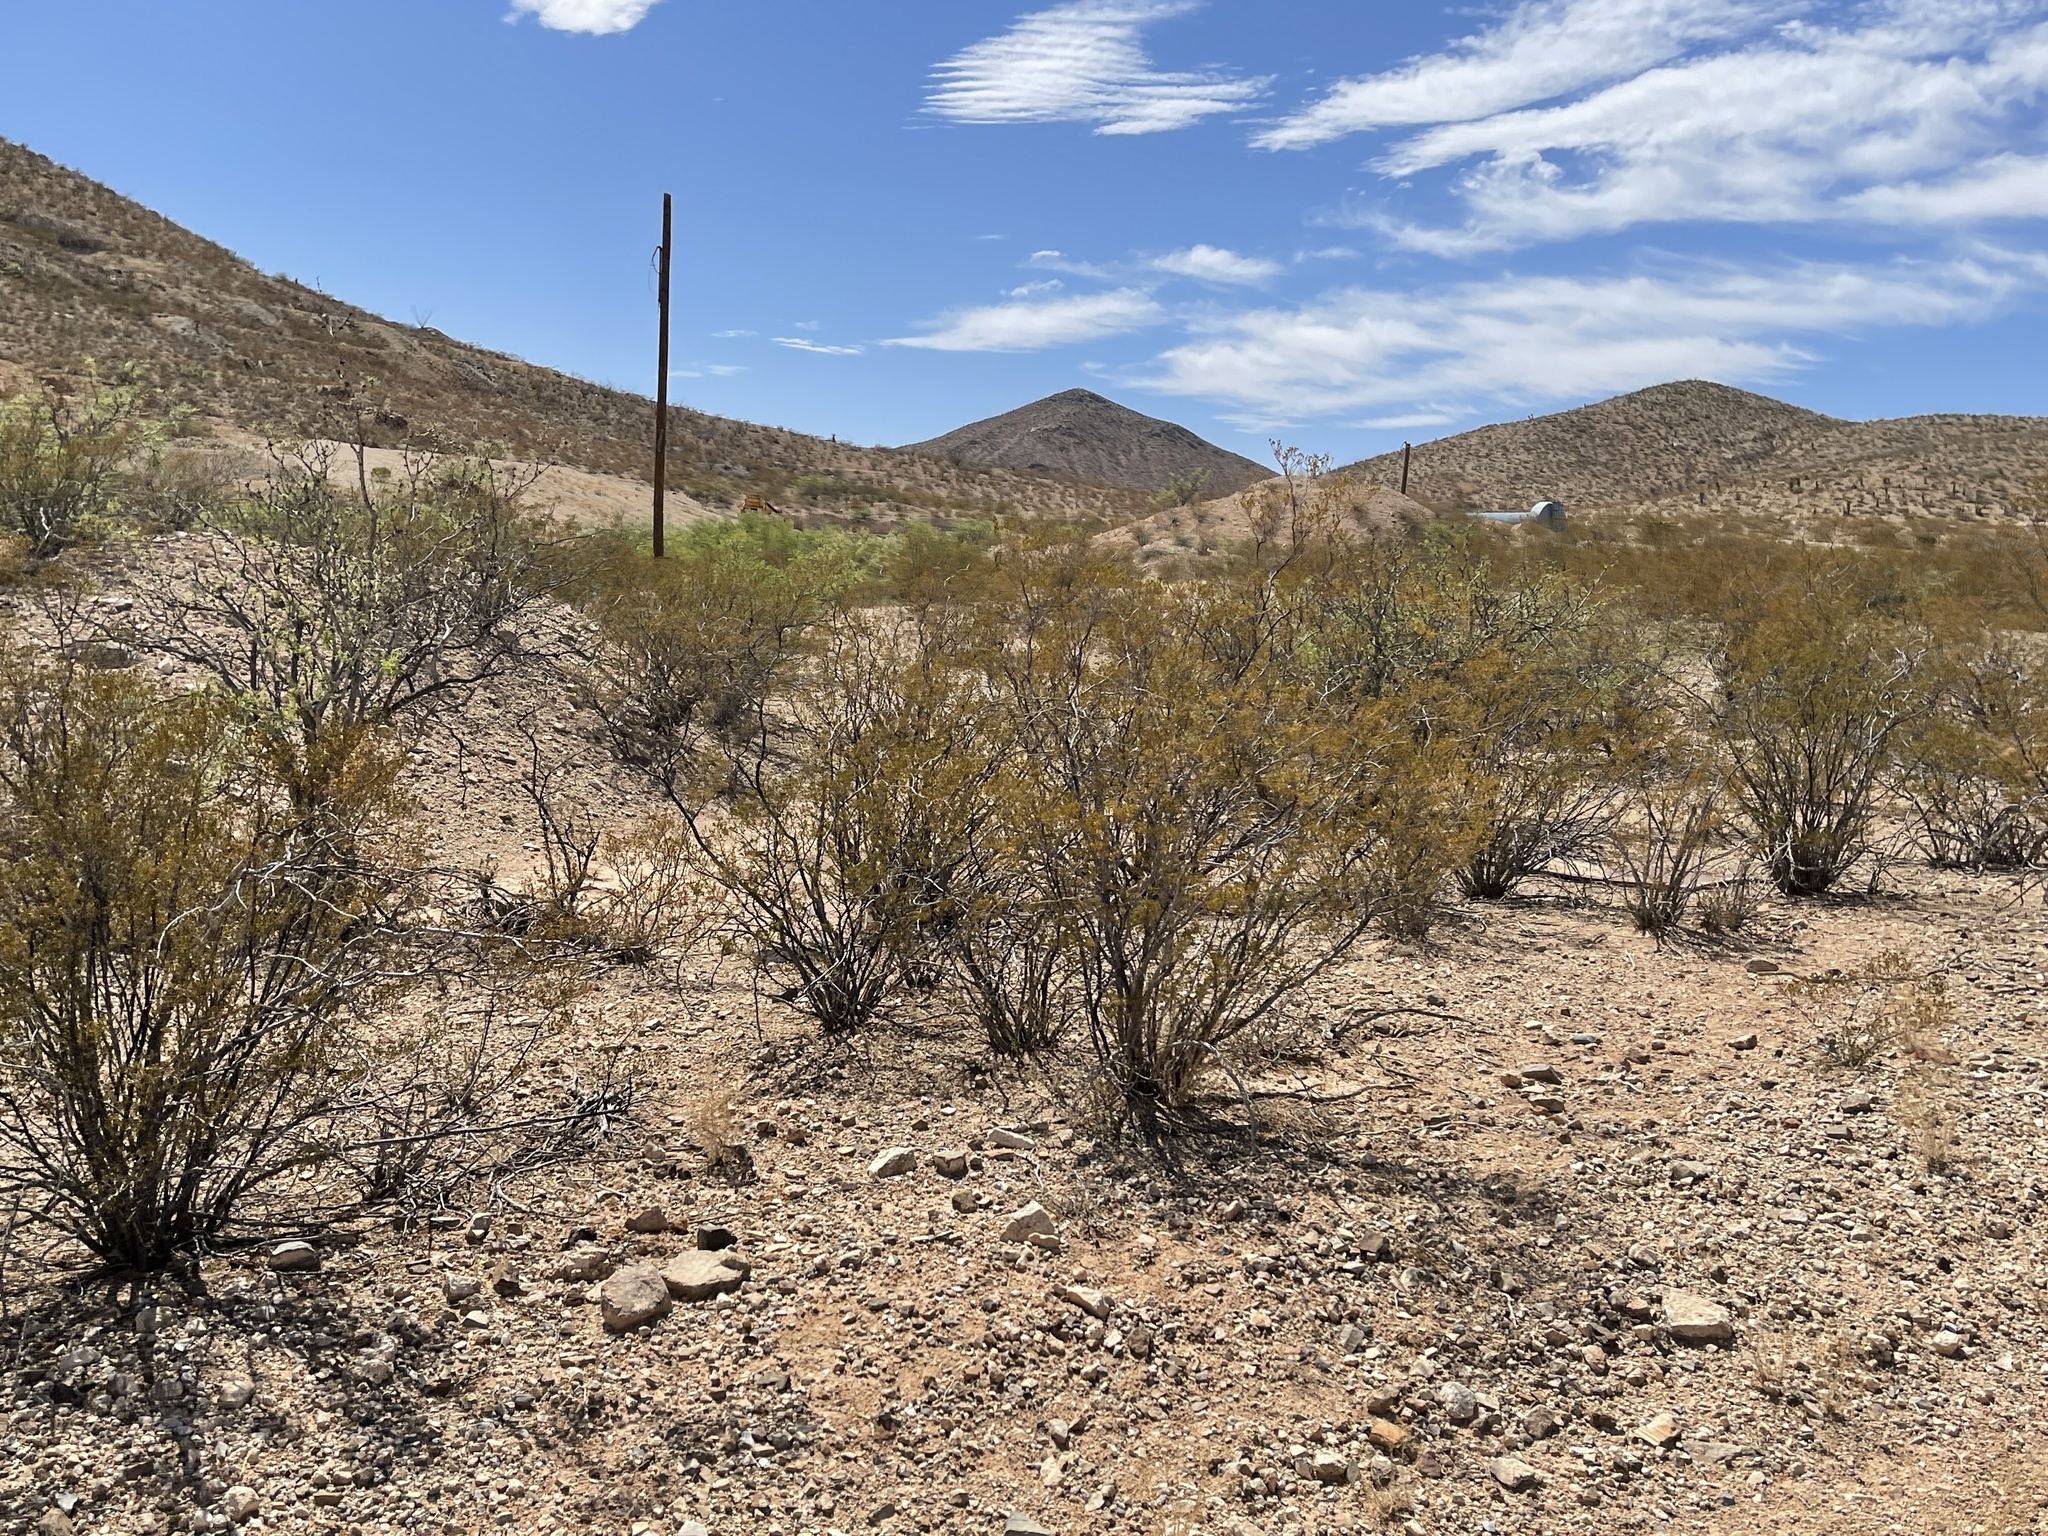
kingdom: Plantae
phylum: Tracheophyta
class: Magnoliopsida
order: Zygophyllales
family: Zygophyllaceae
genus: Larrea
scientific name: Larrea tridentata
